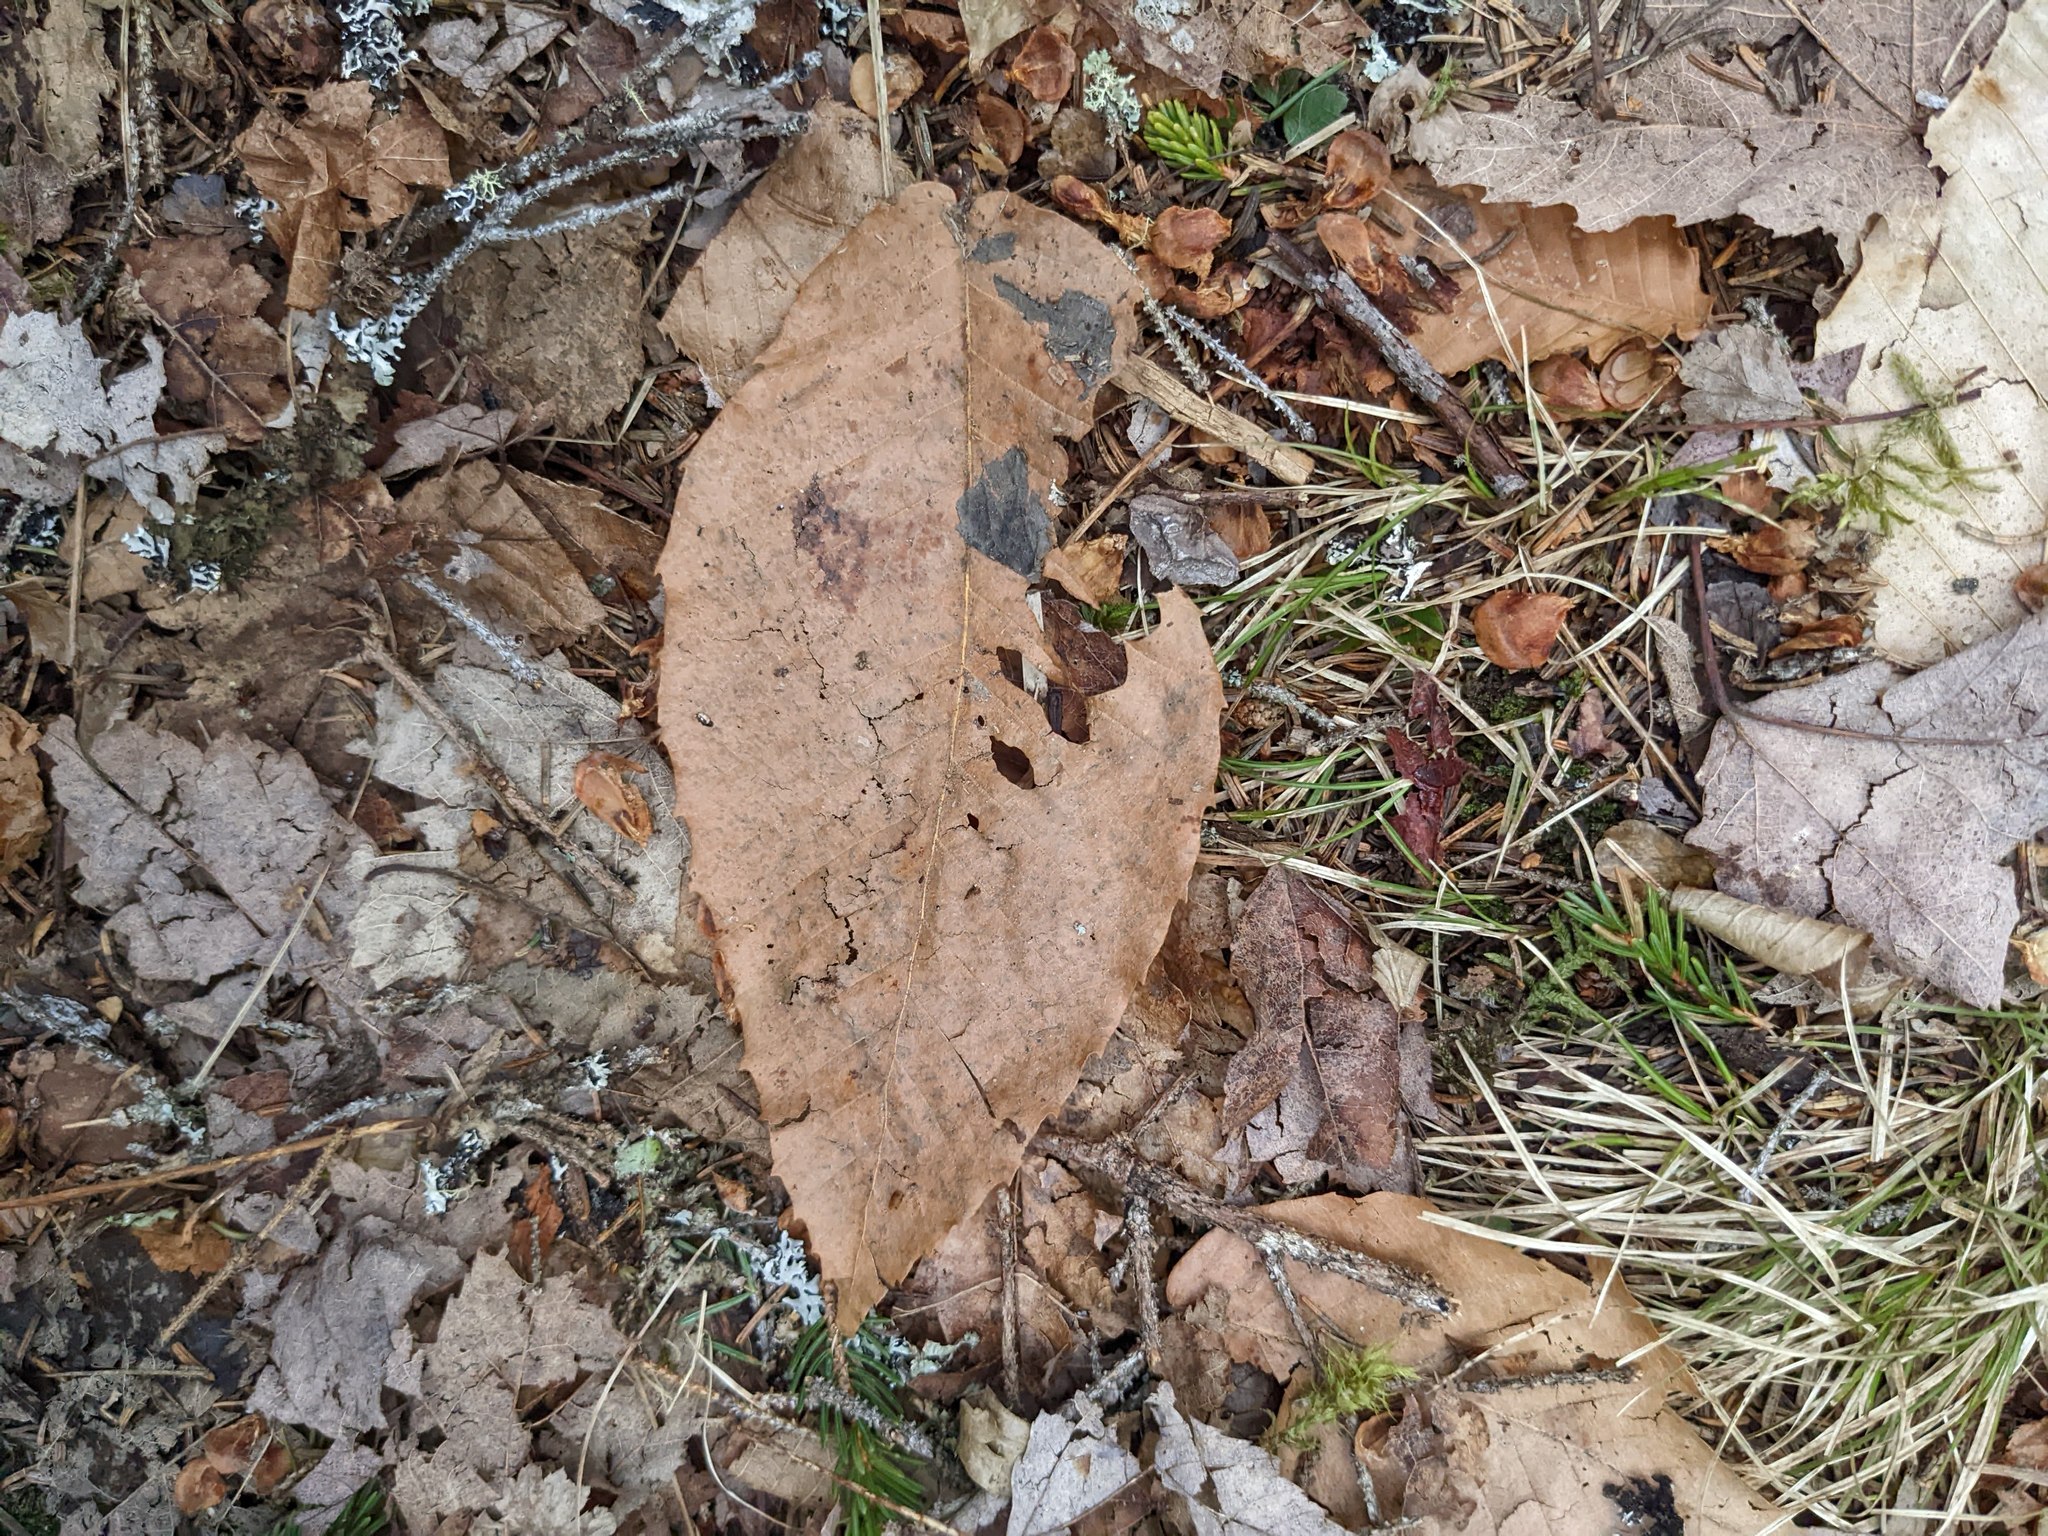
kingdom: Plantae
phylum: Tracheophyta
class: Magnoliopsida
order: Fagales
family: Fagaceae
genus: Fagus
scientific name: Fagus grandifolia
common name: American beech
